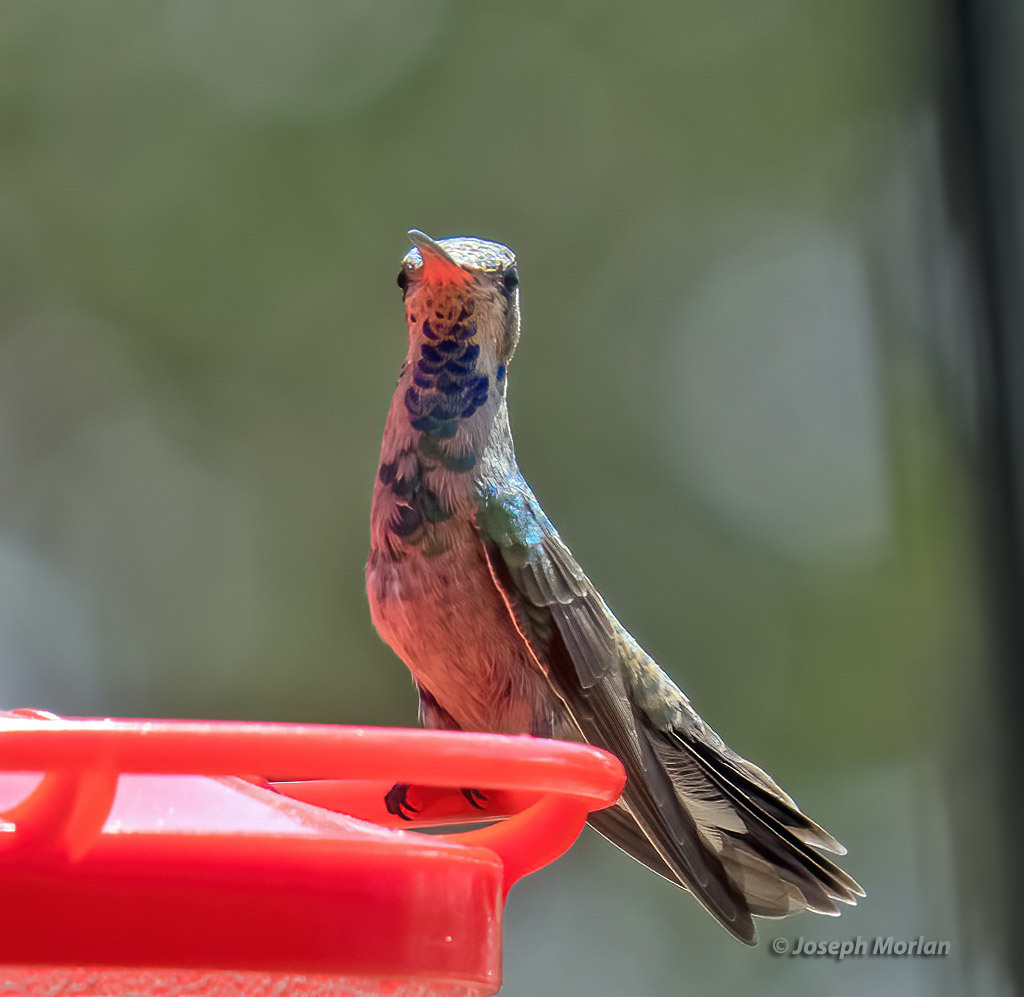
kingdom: Animalia
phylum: Chordata
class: Aves
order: Apodiformes
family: Trochilidae
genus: Cynanthus
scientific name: Cynanthus latirostris
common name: Broad-billed hummingbird
